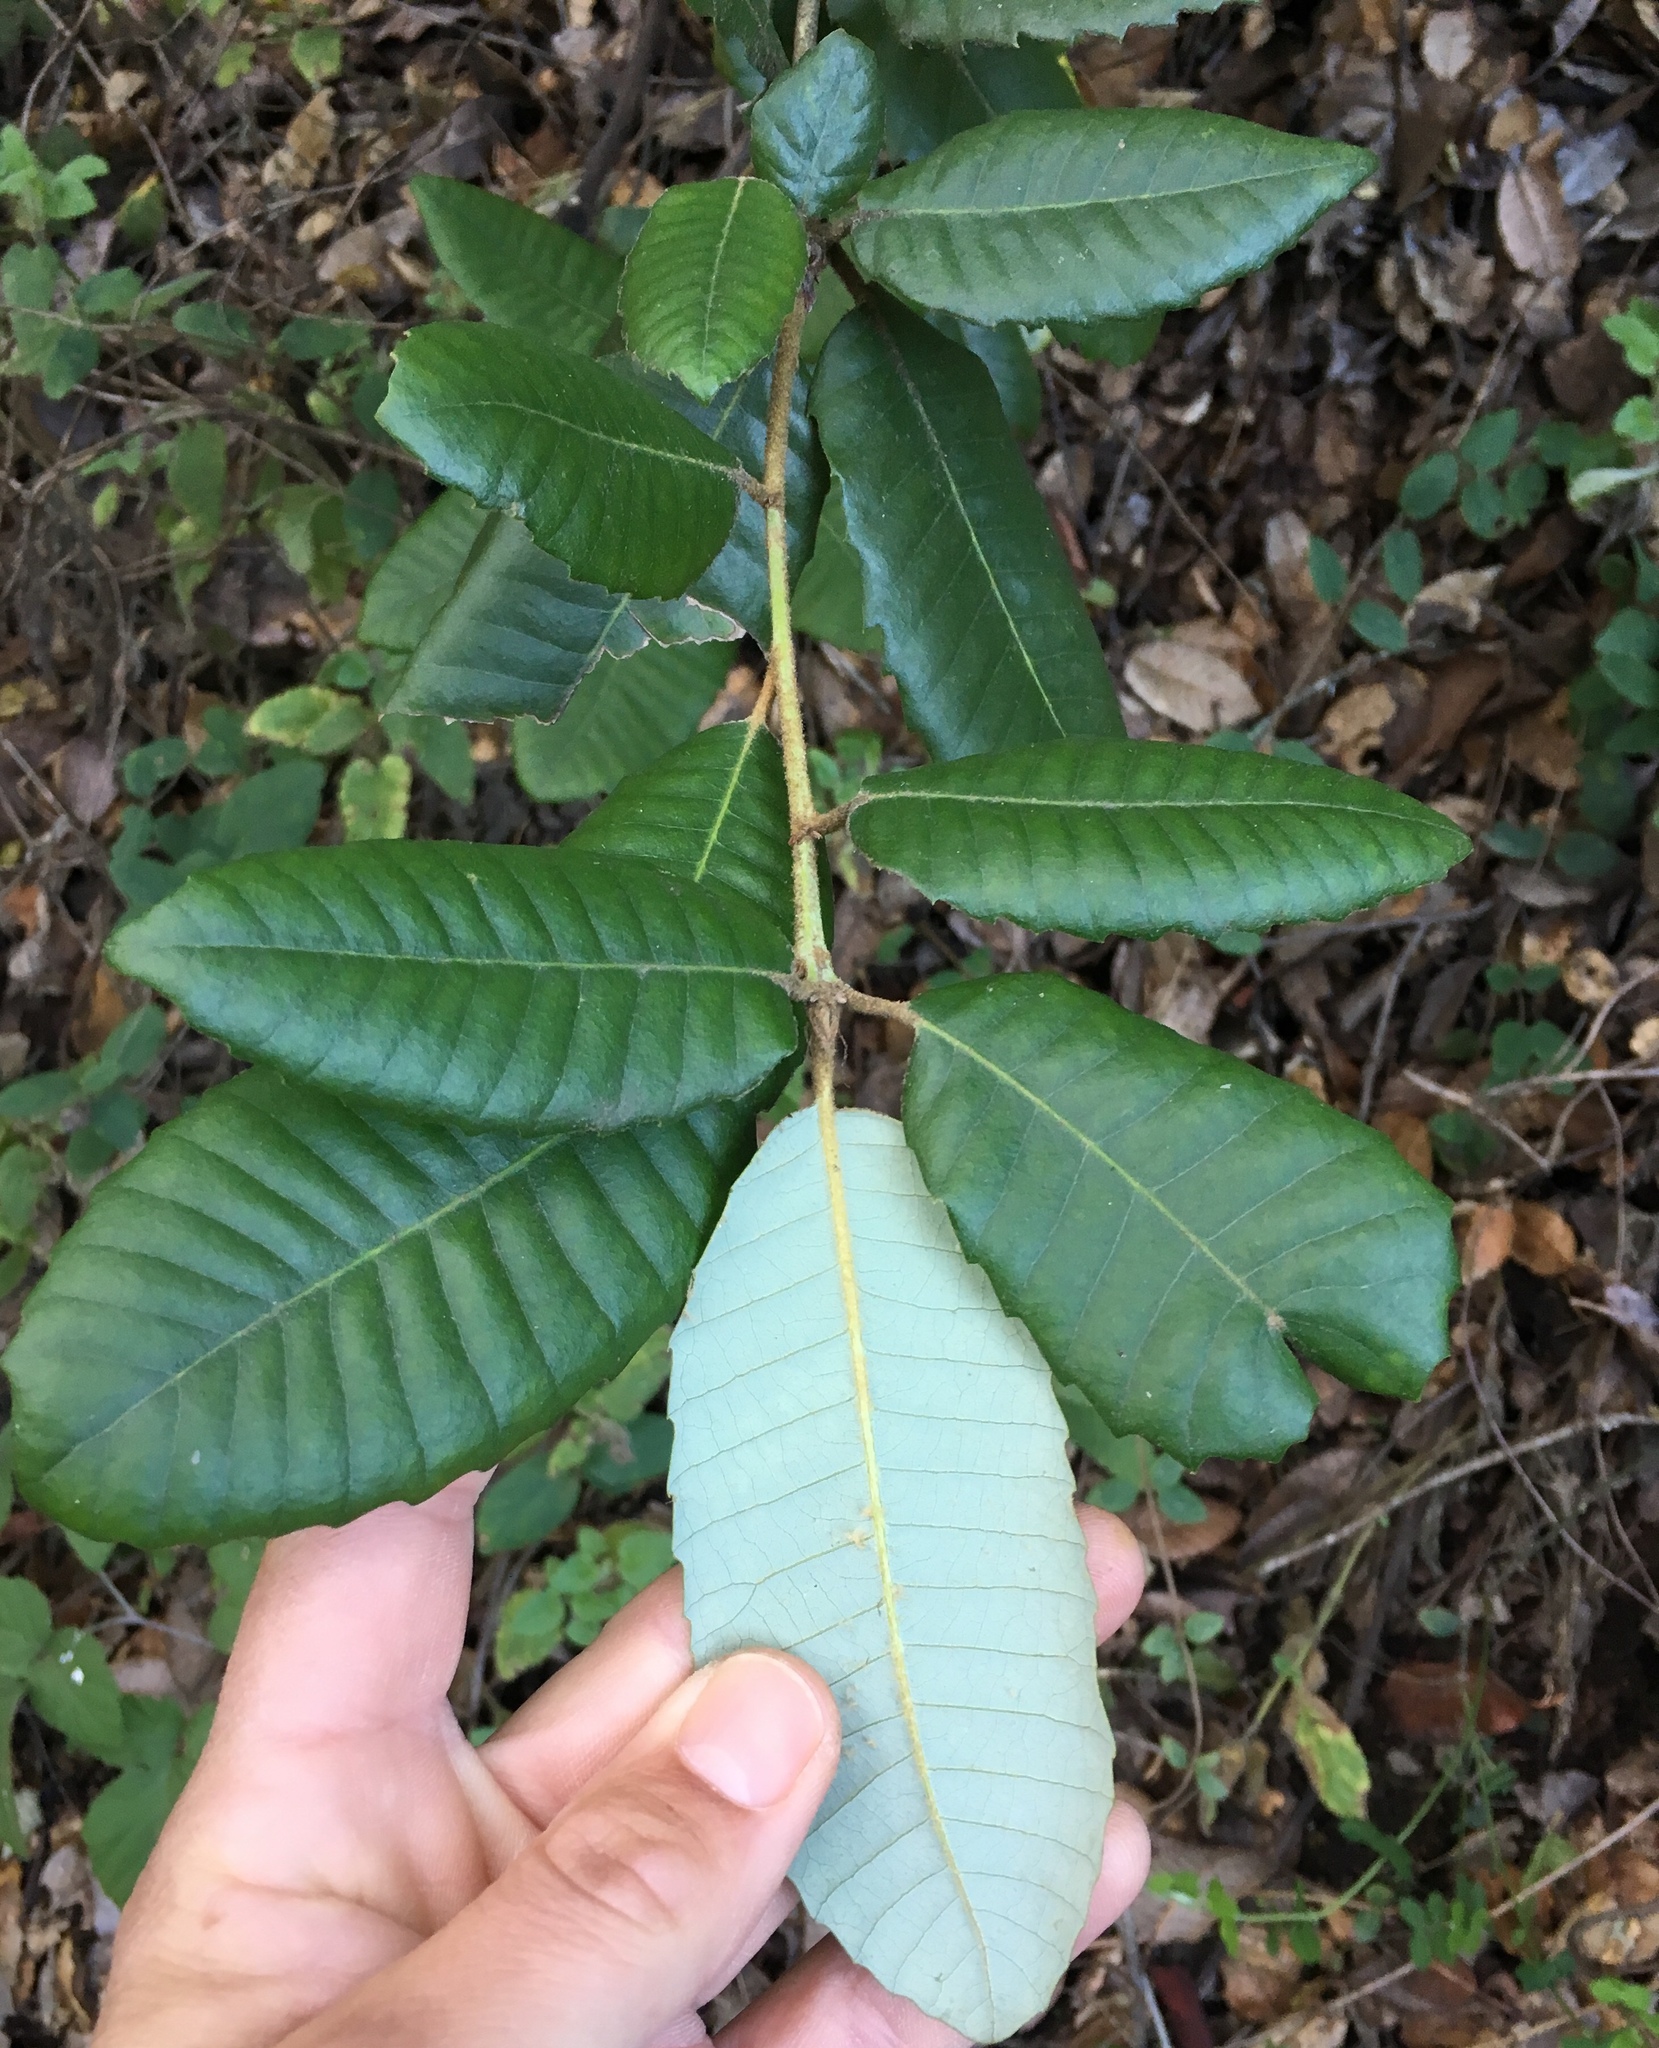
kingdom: Plantae
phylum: Tracheophyta
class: Magnoliopsida
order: Fagales
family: Fagaceae
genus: Notholithocarpus
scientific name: Notholithocarpus densiflorus
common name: Tan bark oak
